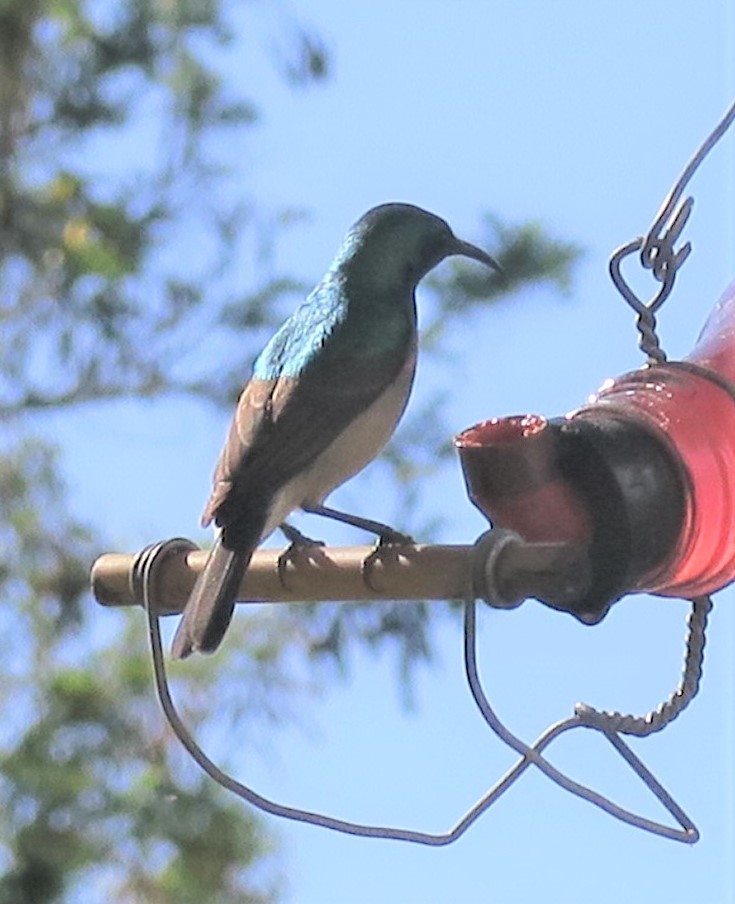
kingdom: Animalia
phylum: Chordata
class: Aves
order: Passeriformes
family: Nectariniidae
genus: Cinnyris
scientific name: Cinnyris chalybeus
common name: Southern double-collared sunbird
